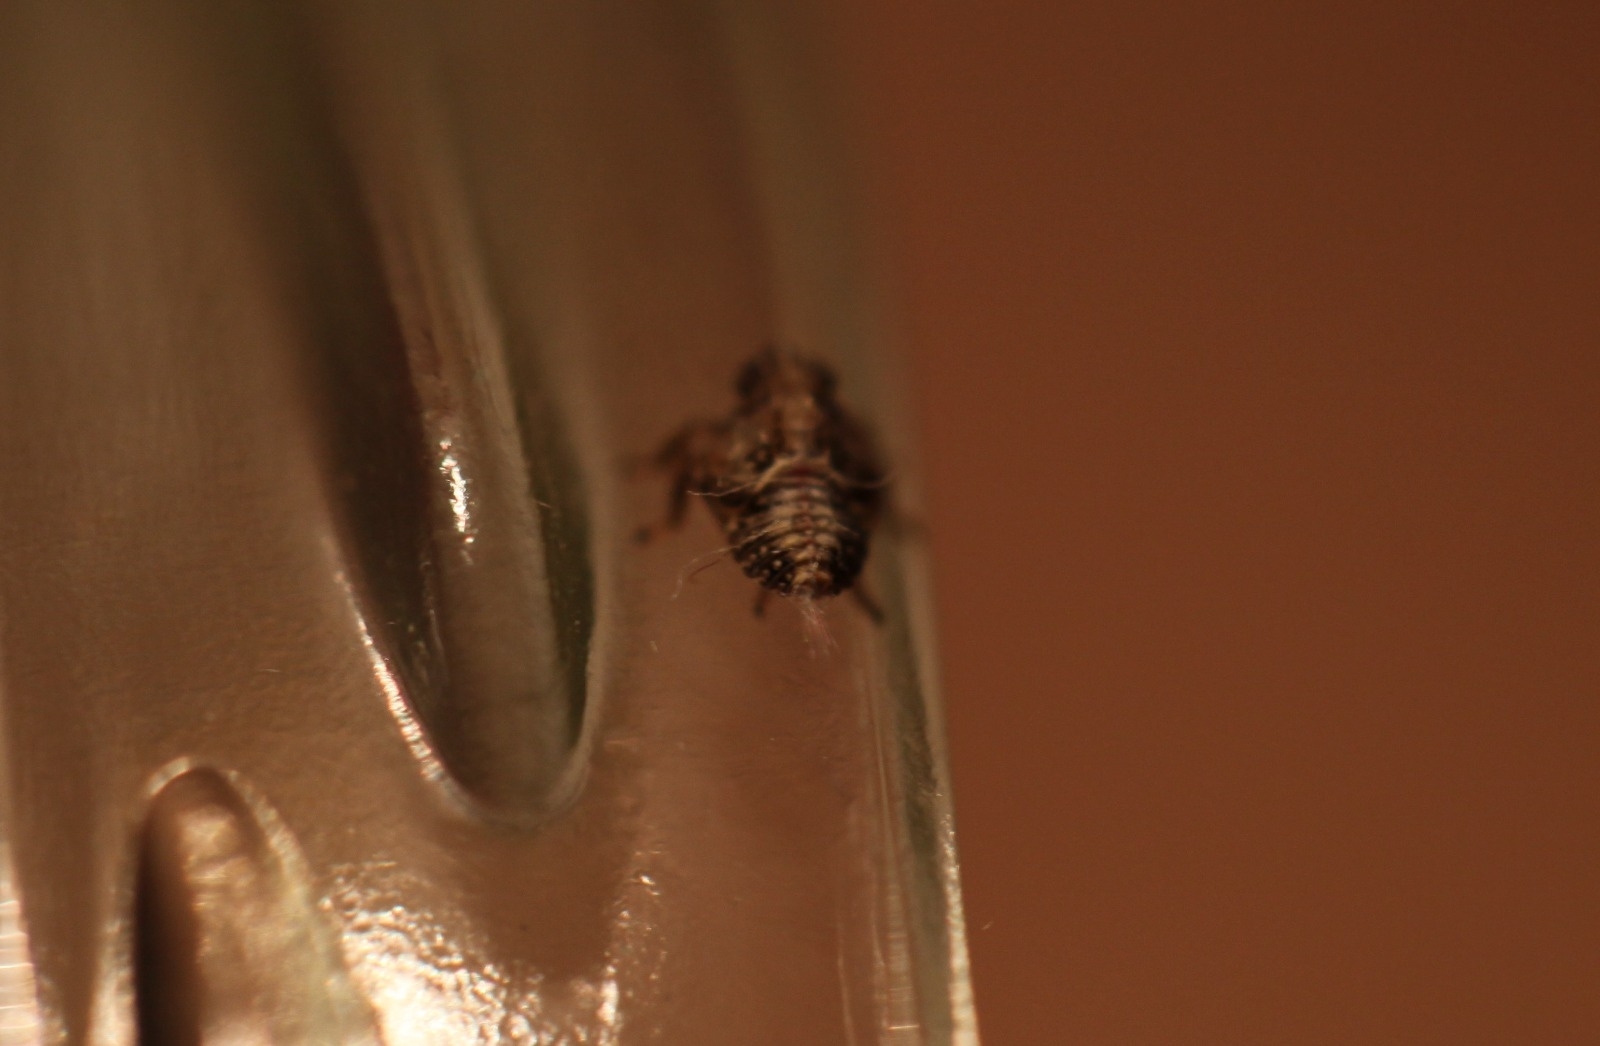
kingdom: Animalia
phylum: Arthropoda
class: Insecta
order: Hemiptera
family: Issidae
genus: Issus
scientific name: Issus
